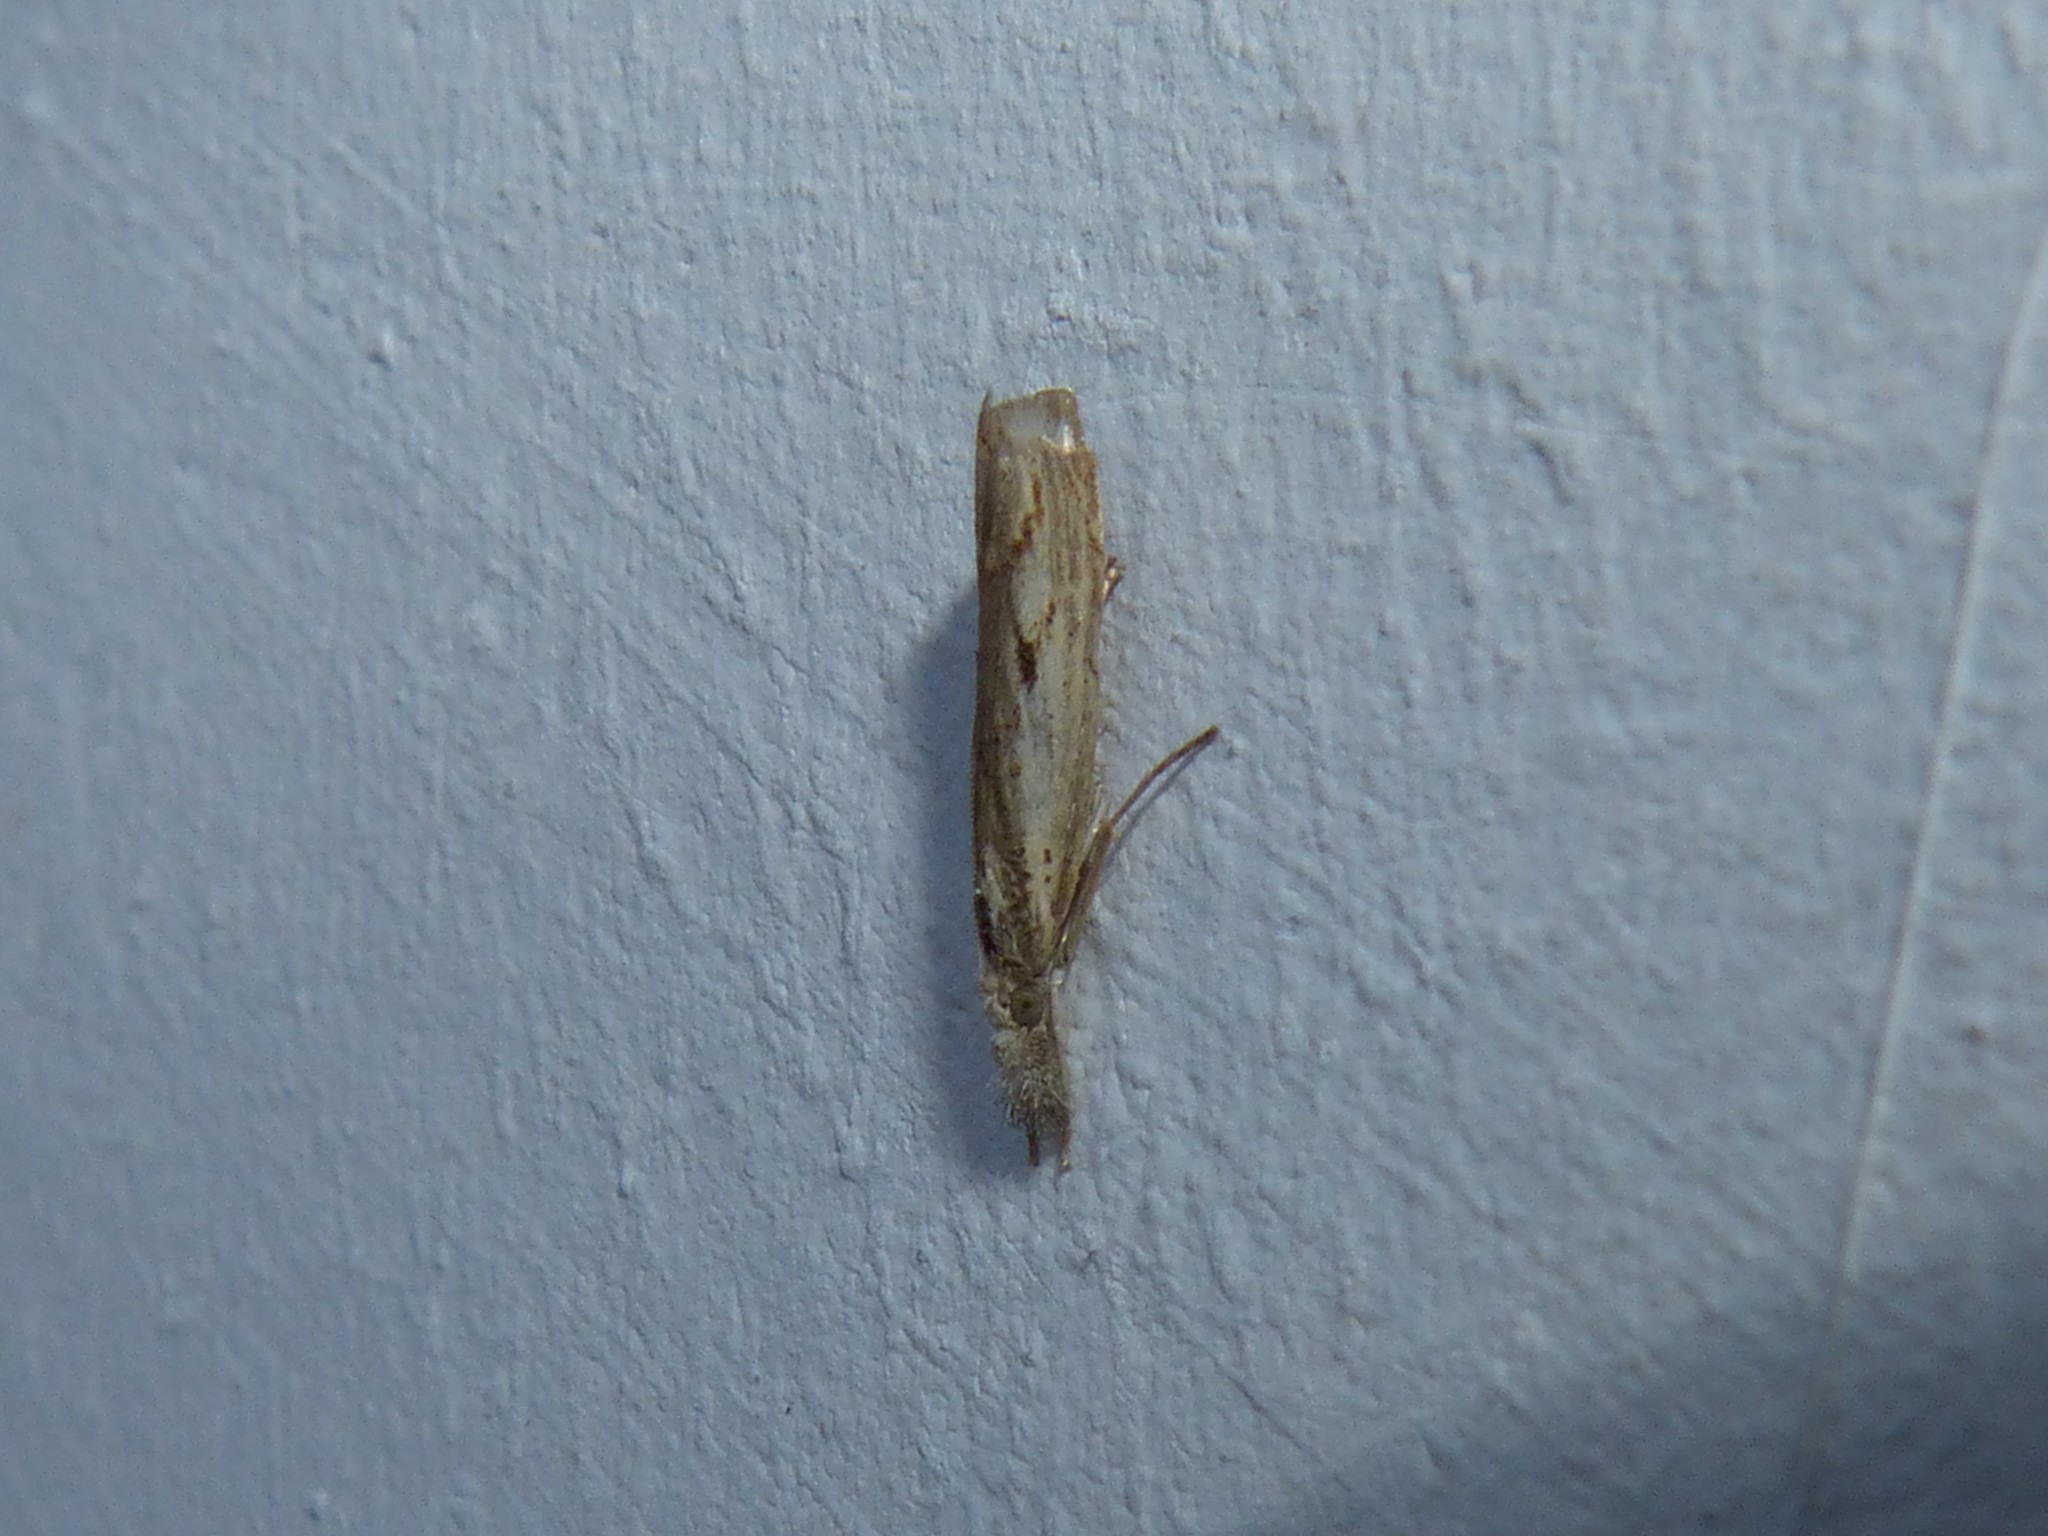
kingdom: Animalia
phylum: Arthropoda
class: Insecta
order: Lepidoptera
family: Crambidae
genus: Agriphila
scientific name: Agriphila inquinatella
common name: Barred grass-veneer
